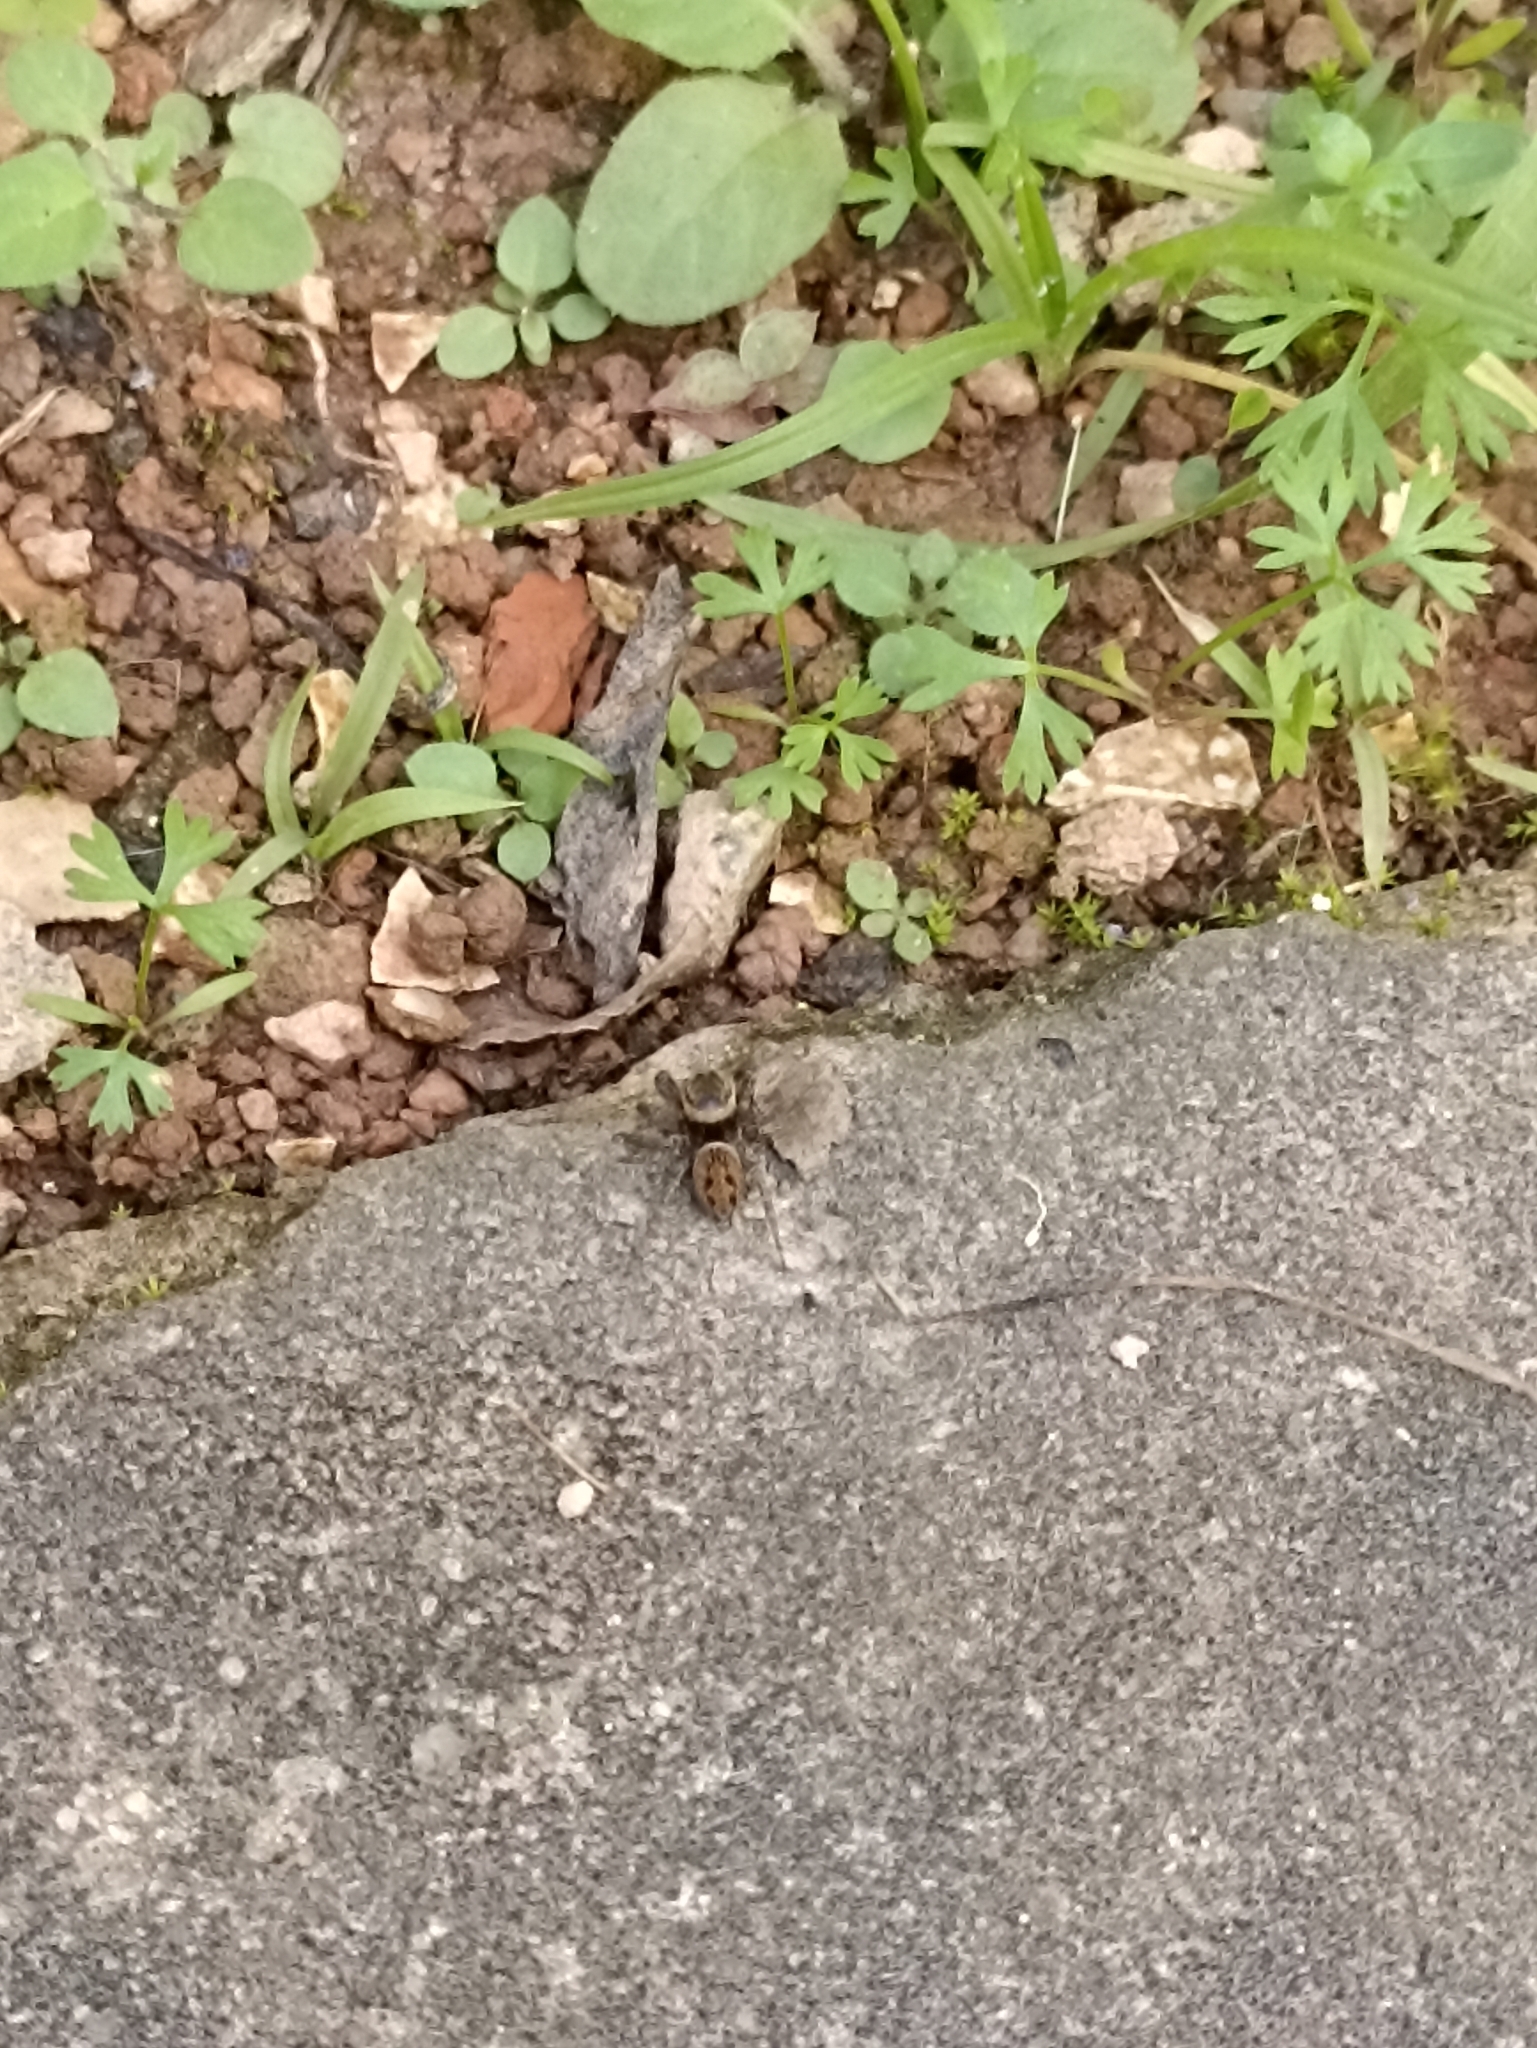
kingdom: Animalia
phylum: Arthropoda
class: Arachnida
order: Araneae
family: Salticidae
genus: Hasarius
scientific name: Hasarius adansoni
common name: Jumping spider
